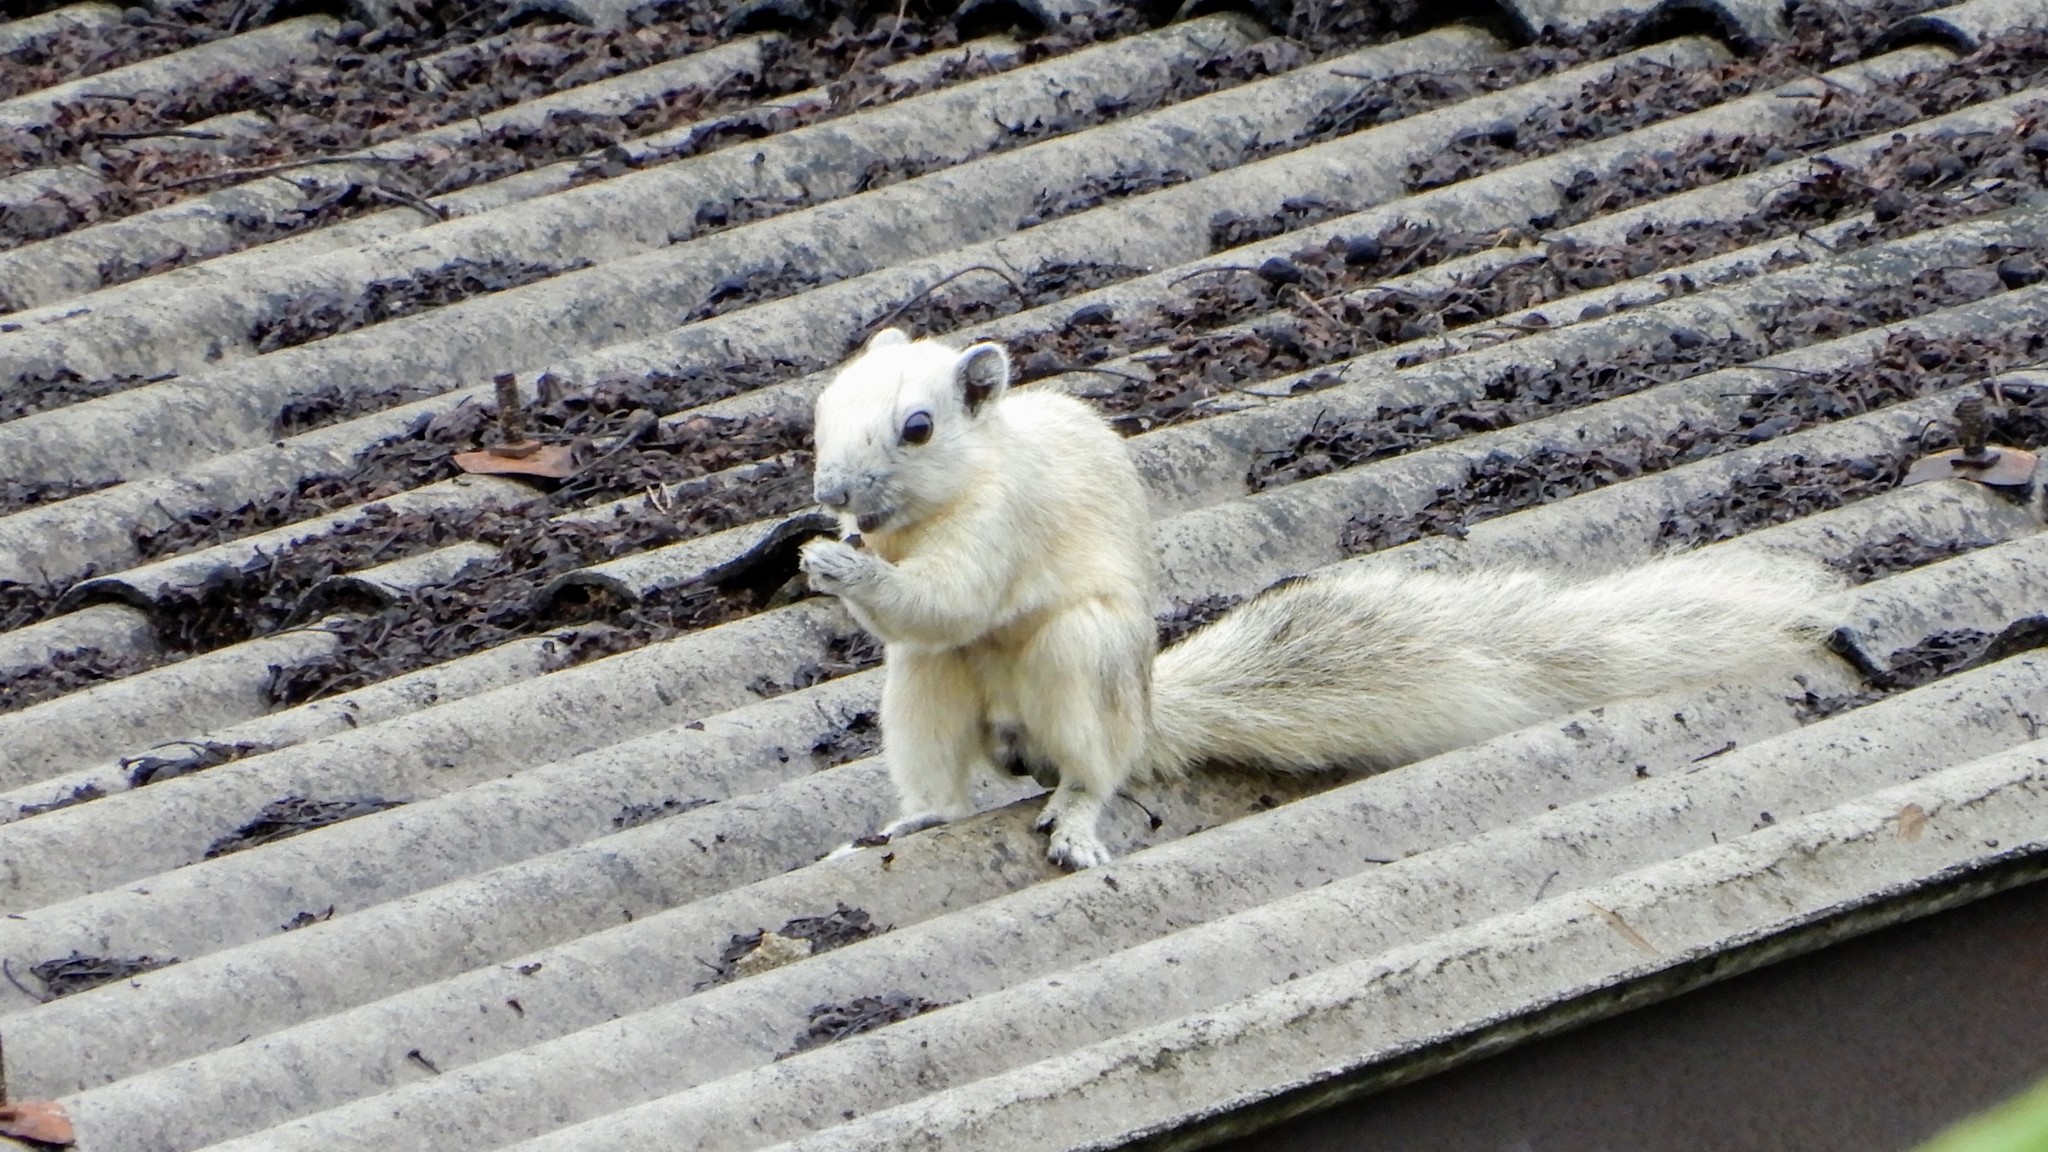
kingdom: Animalia
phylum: Chordata
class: Mammalia
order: Rodentia
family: Sciuridae
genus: Callosciurus
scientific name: Callosciurus finlaysonii
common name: Finlayson's squirrel
